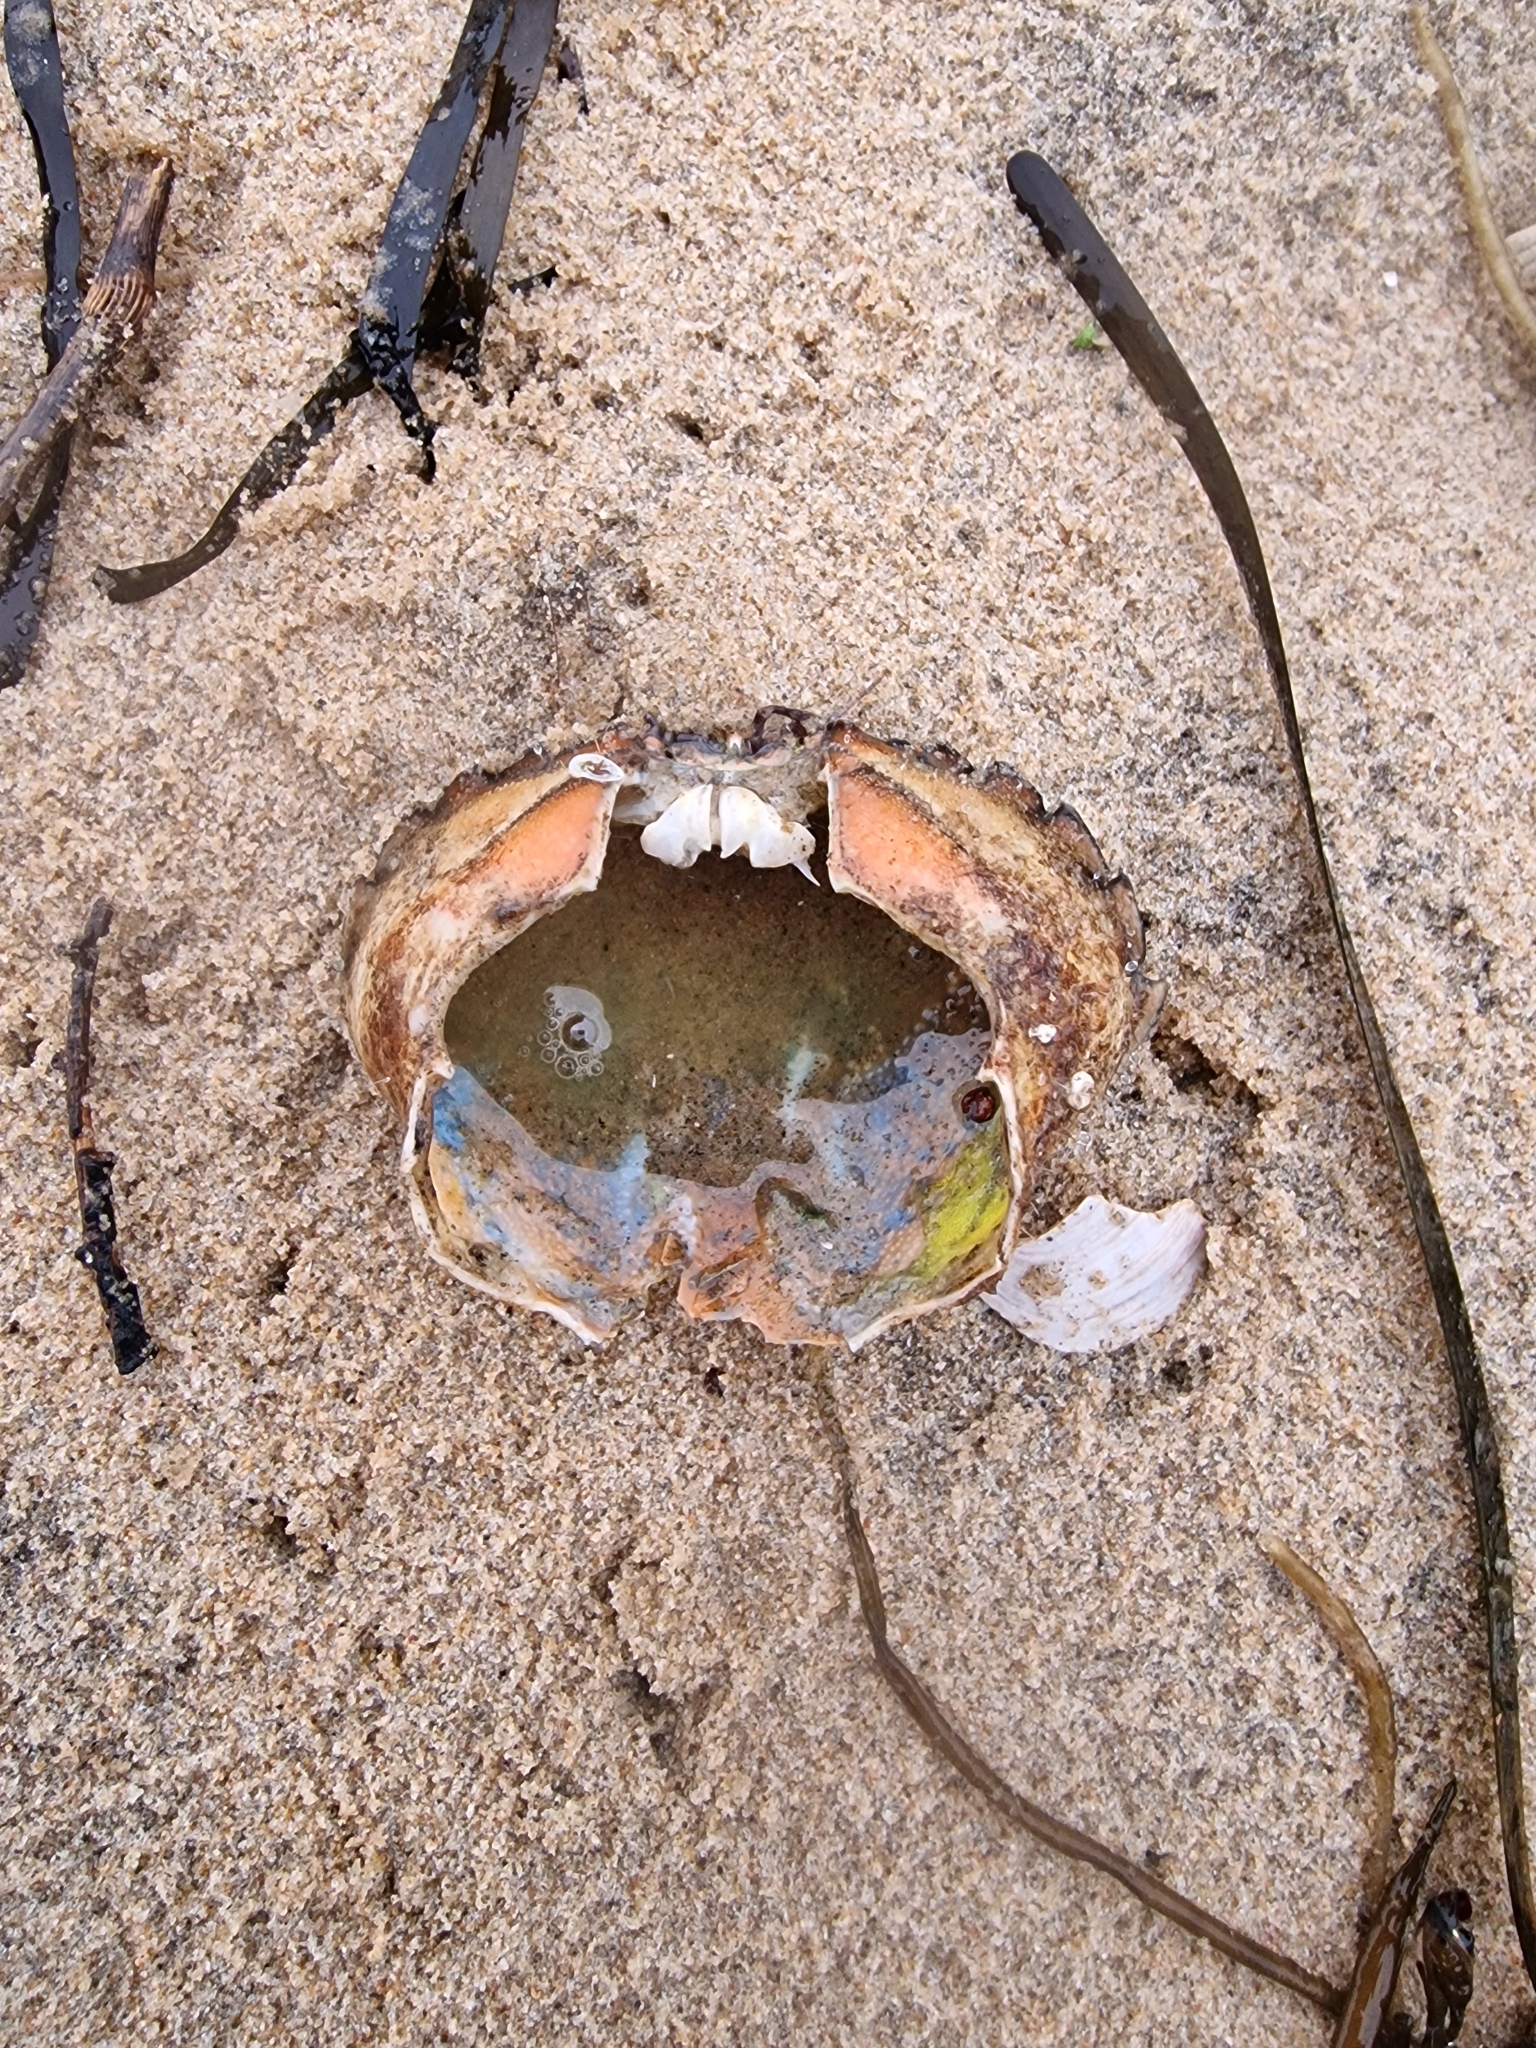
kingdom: Animalia
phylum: Arthropoda
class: Malacostraca
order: Decapoda
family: Carcinidae
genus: Carcinus
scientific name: Carcinus maenas
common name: European green crab
